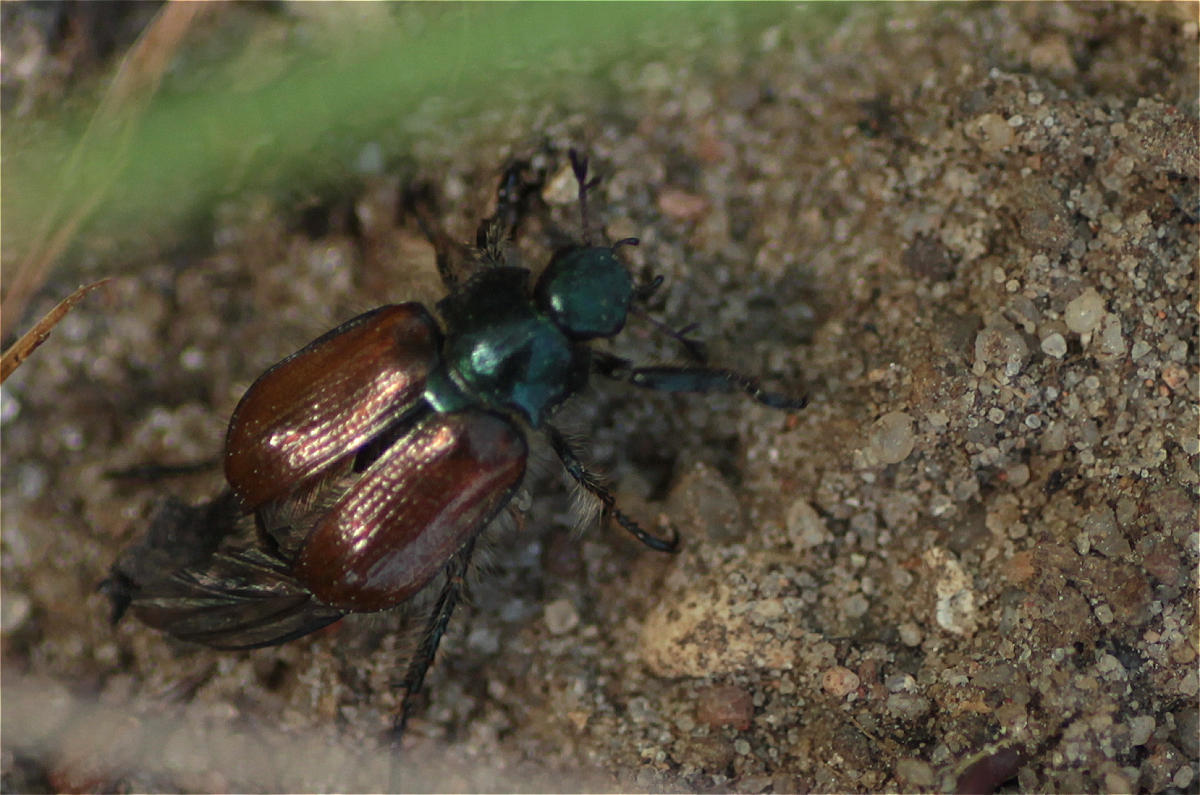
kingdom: Animalia
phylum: Arthropoda
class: Insecta
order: Coleoptera
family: Scarabaeidae
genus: Phyllopertha
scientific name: Phyllopertha horticola
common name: Garden chafer
